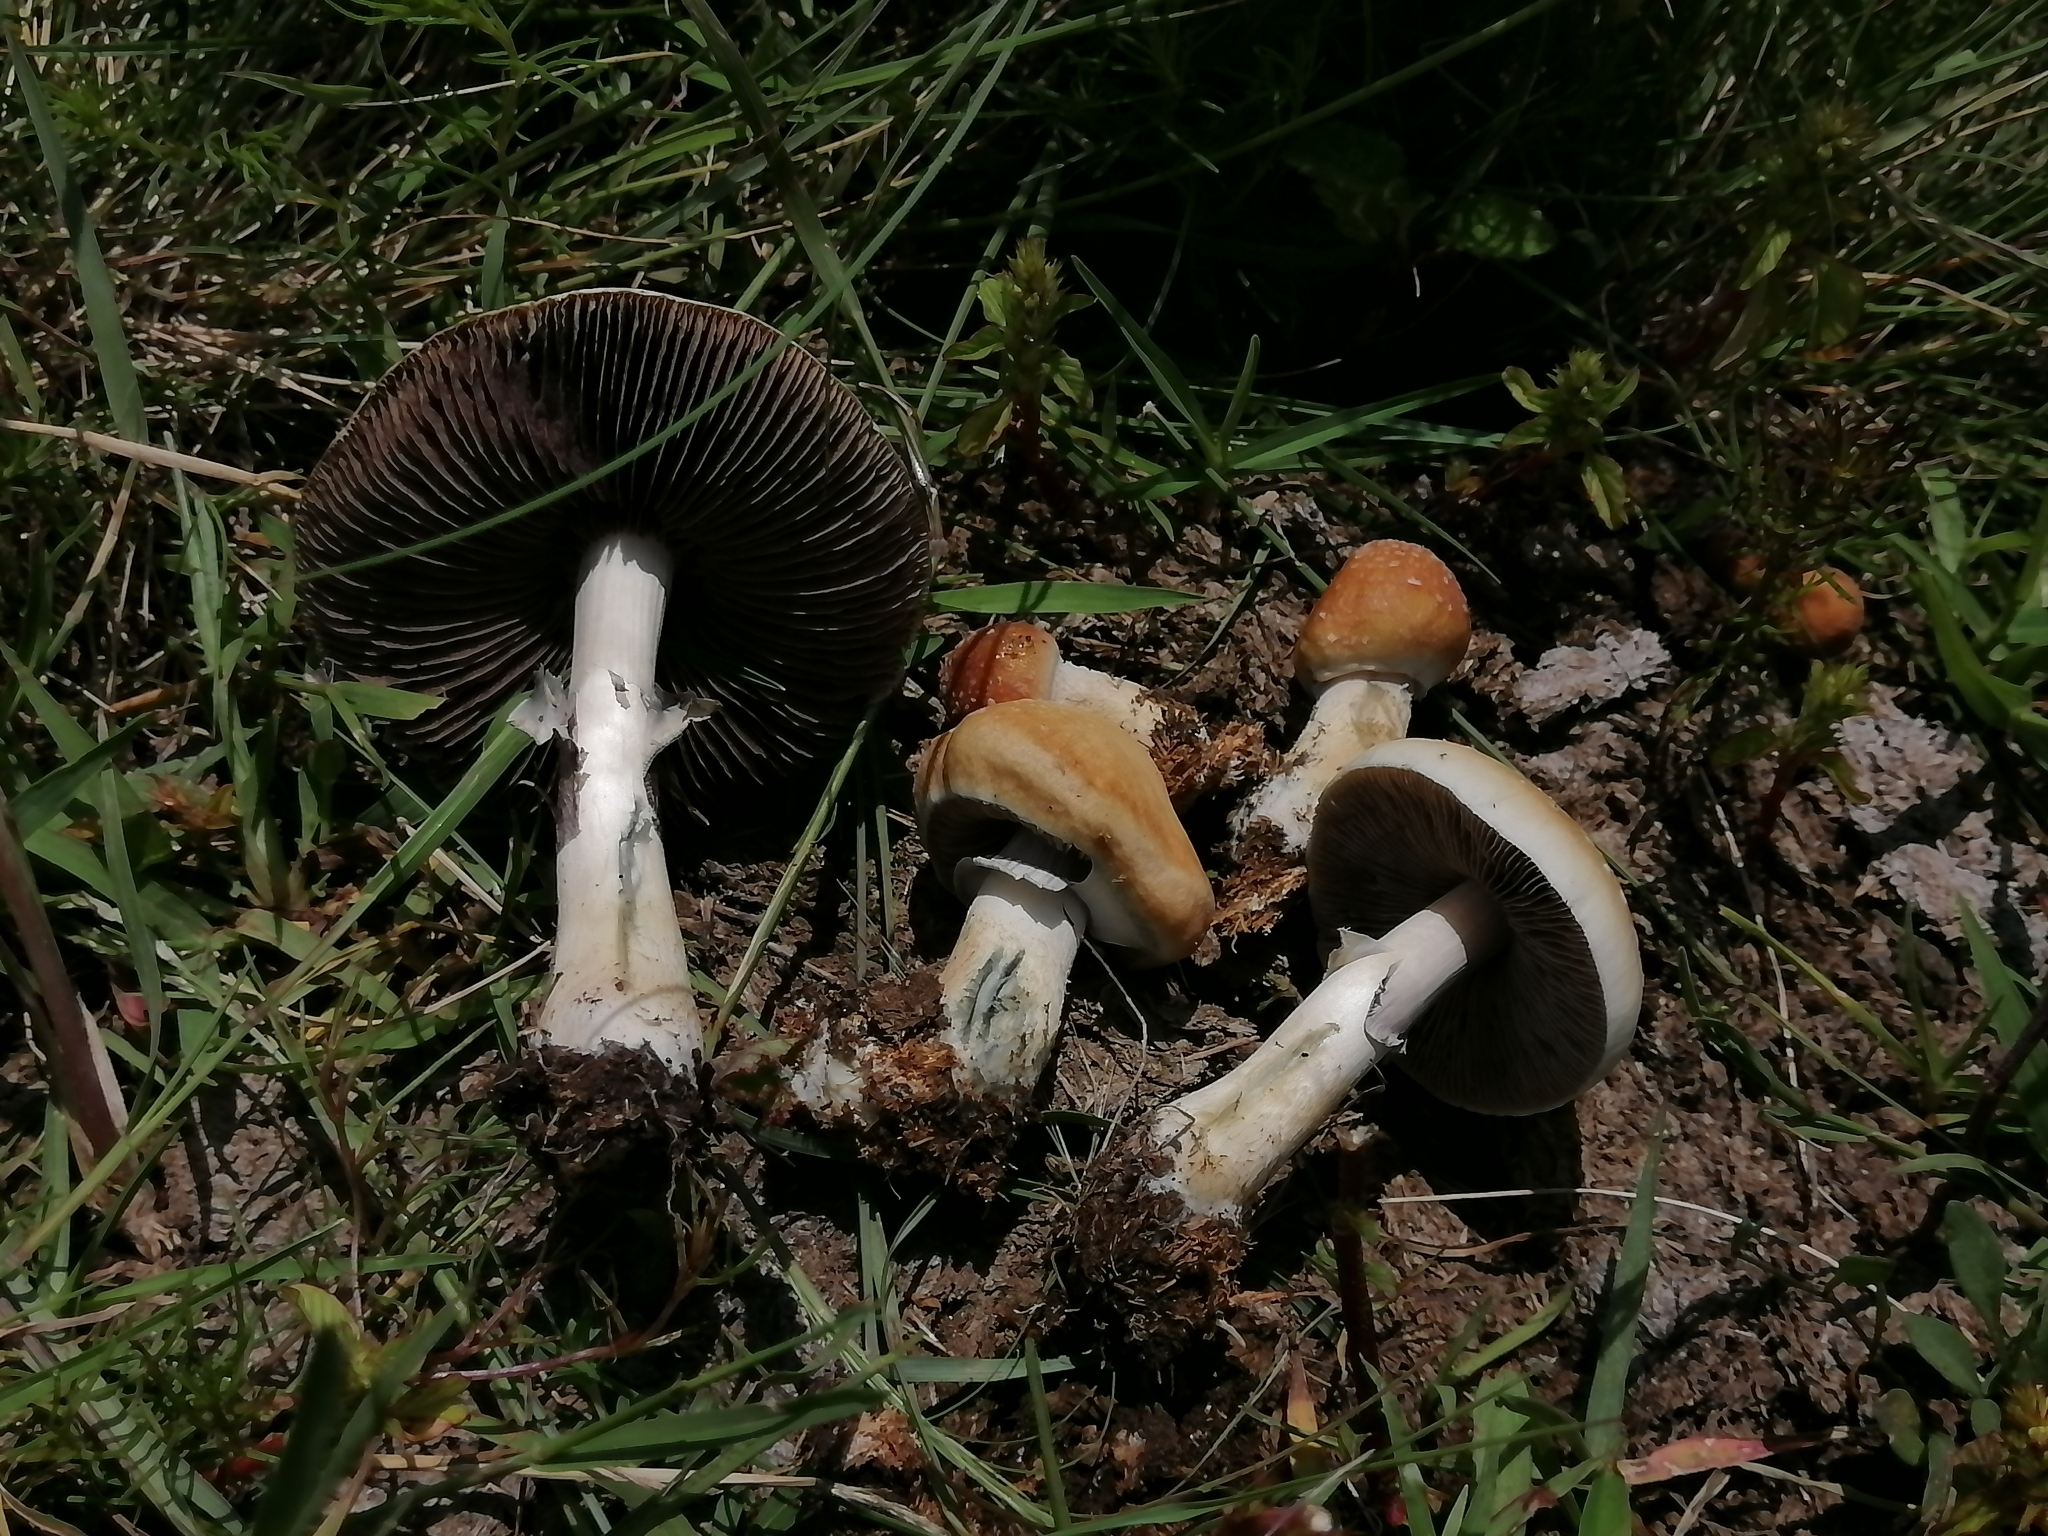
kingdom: Fungi
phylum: Basidiomycota
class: Agaricomycetes
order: Agaricales
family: Hymenogastraceae
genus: Psilocybe
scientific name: Psilocybe cubensis
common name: Golden brownie
